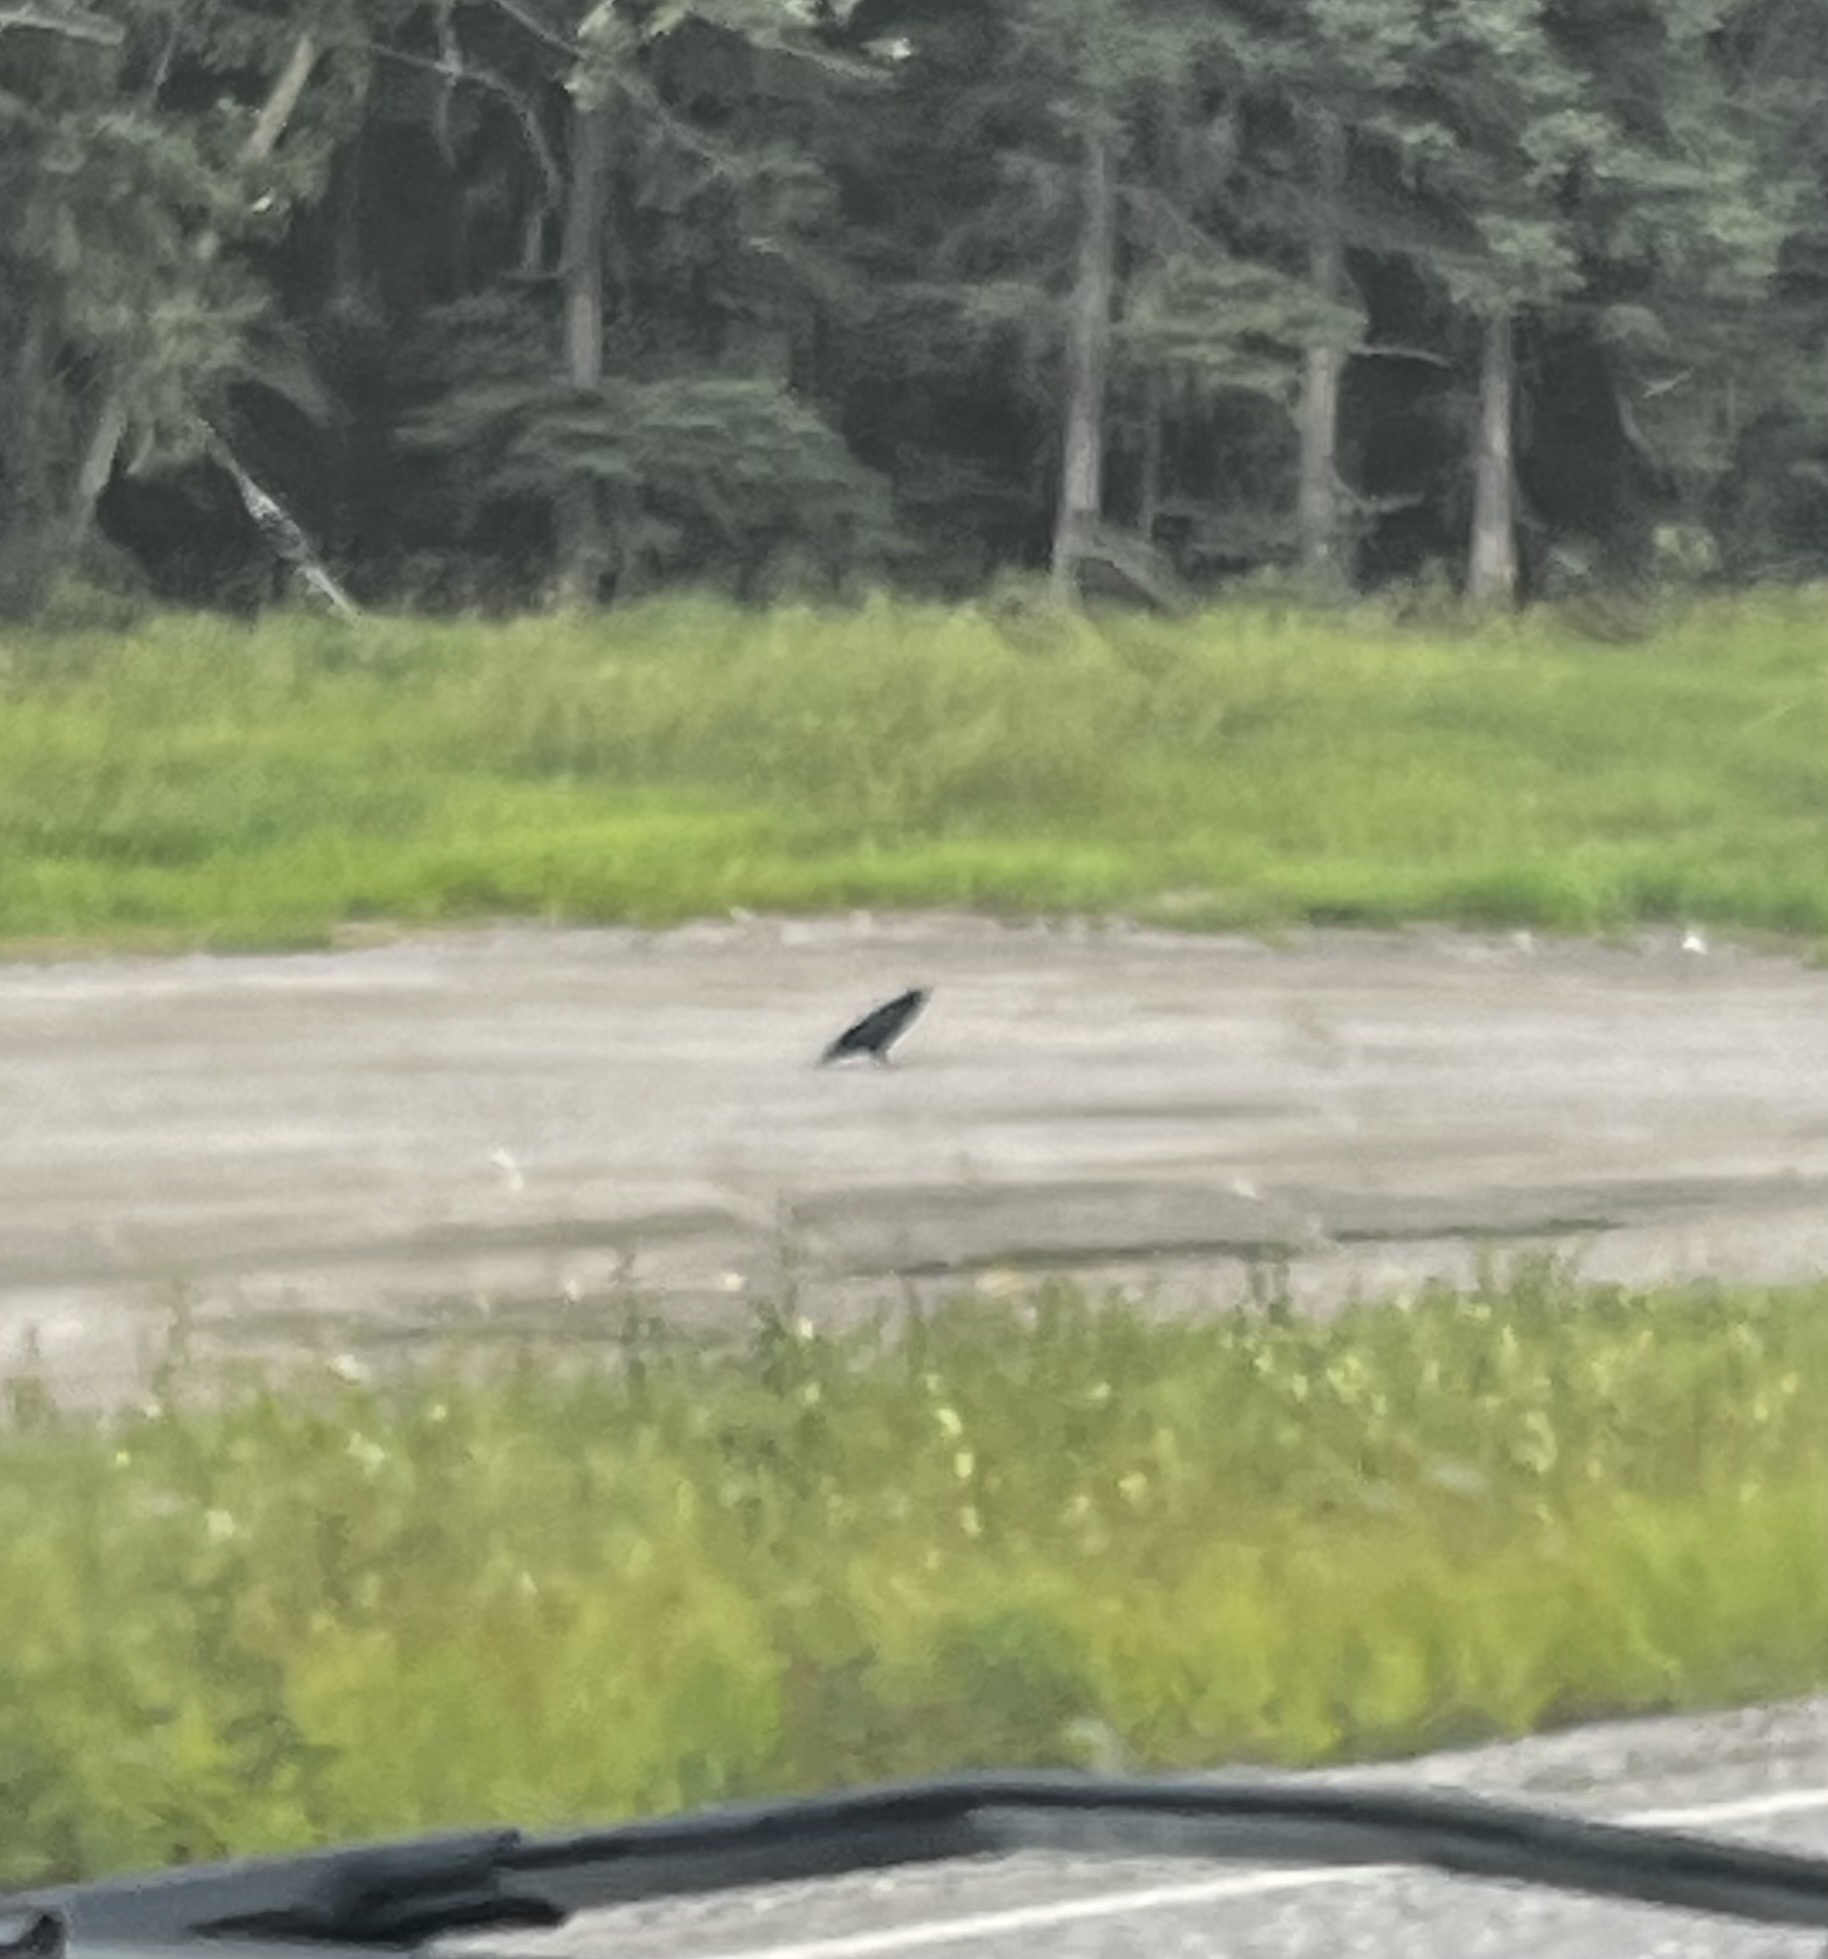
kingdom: Animalia
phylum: Chordata
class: Aves
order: Passeriformes
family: Corvidae
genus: Corvus
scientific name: Corvus corax
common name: Common raven
